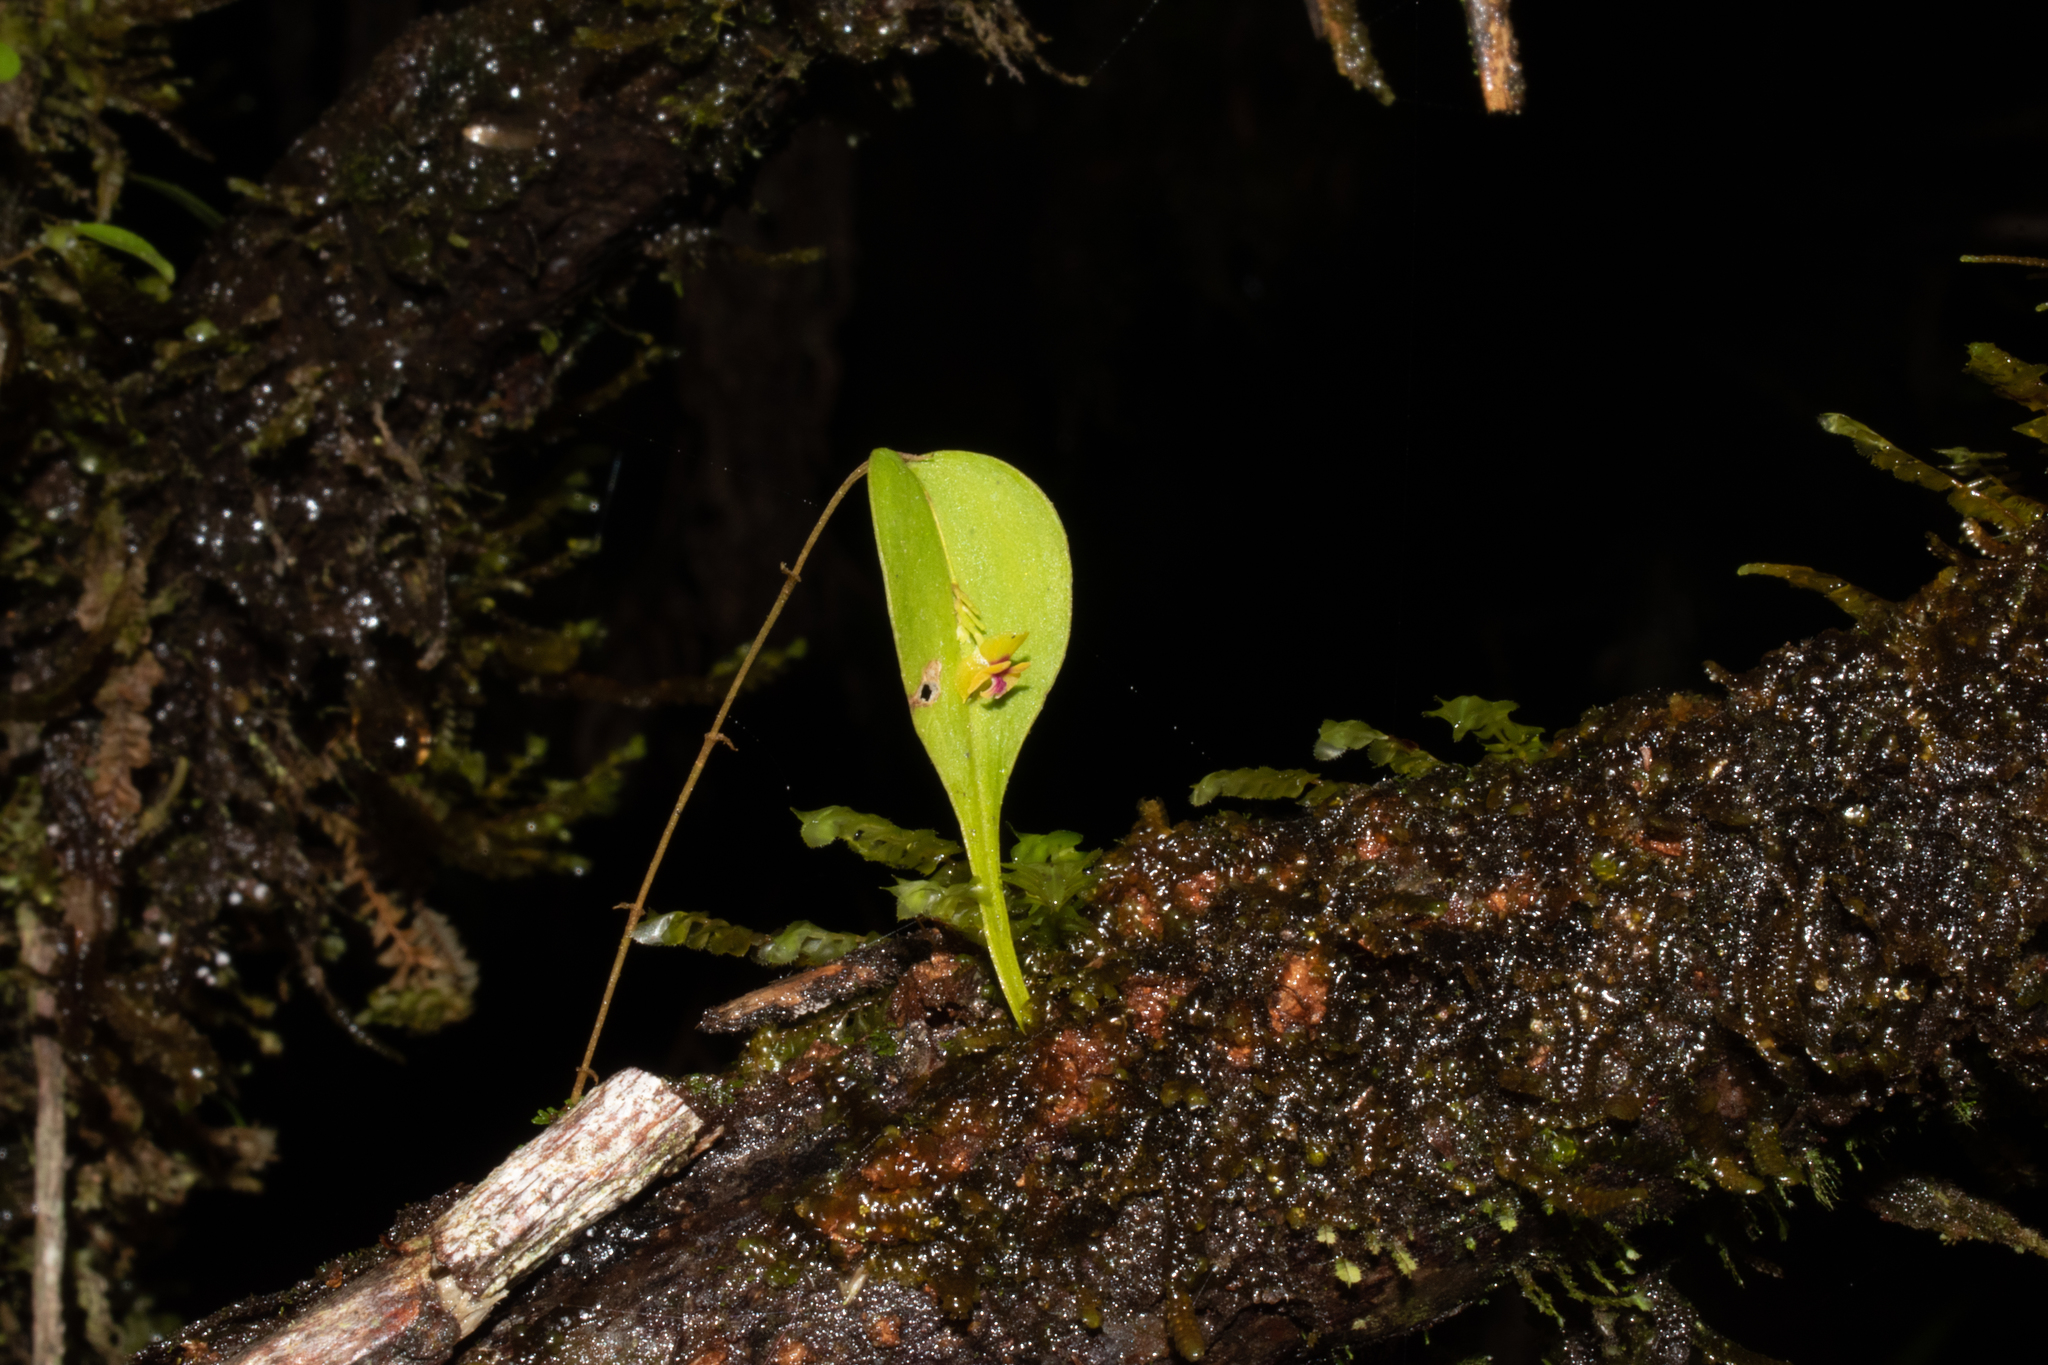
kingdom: Plantae
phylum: Tracheophyta
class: Liliopsida
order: Asparagales
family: Orchidaceae
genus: Lepanthes
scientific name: Lepanthes auditor
